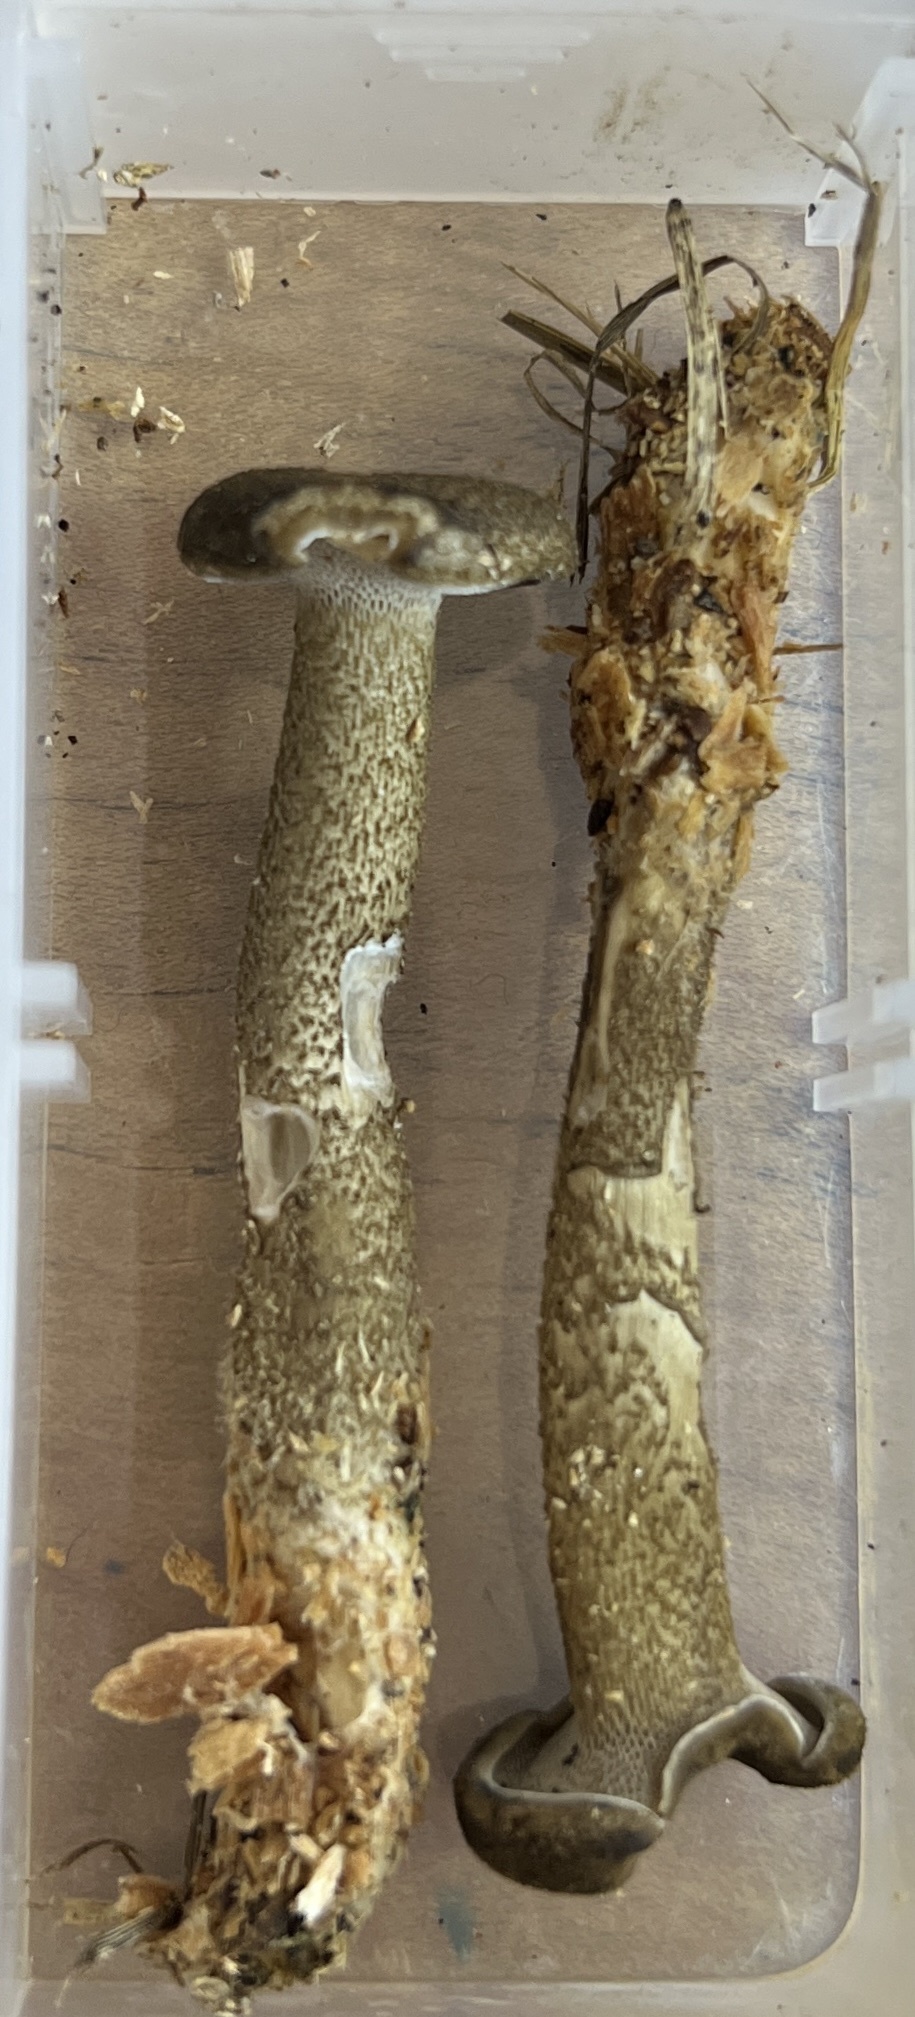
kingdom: Fungi
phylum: Basidiomycota
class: Agaricomycetes
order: Polyporales
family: Polyporaceae
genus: Lentinus
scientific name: Lentinus arcularius
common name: Spring polypore
